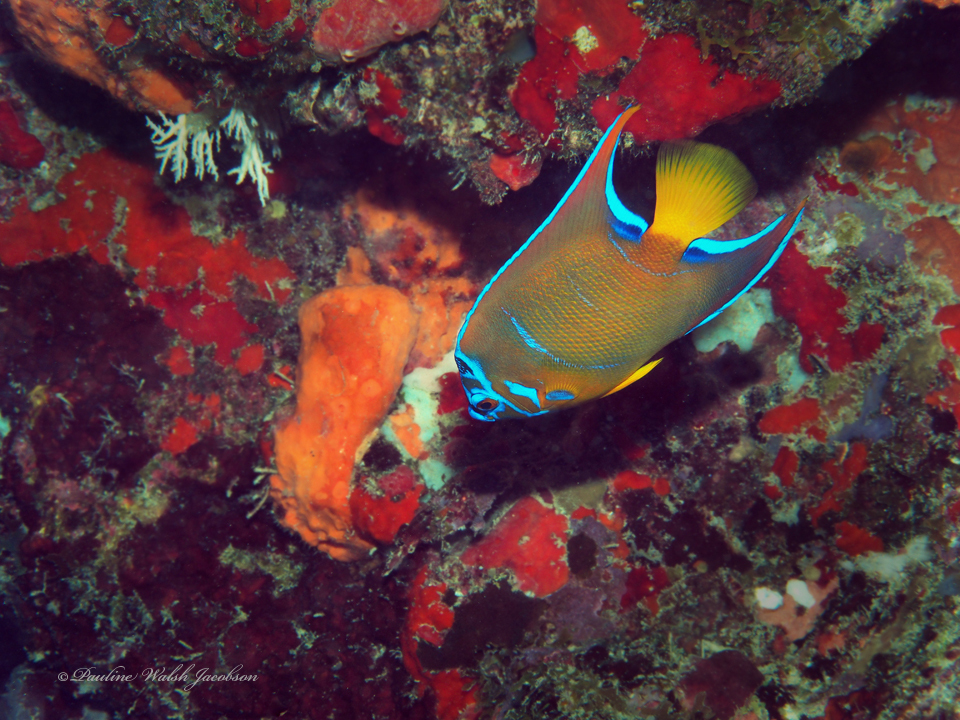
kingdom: Animalia
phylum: Chordata
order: Perciformes
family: Pomacanthidae
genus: Holacanthus
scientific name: Holacanthus ciliaris
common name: Queen angelfish
